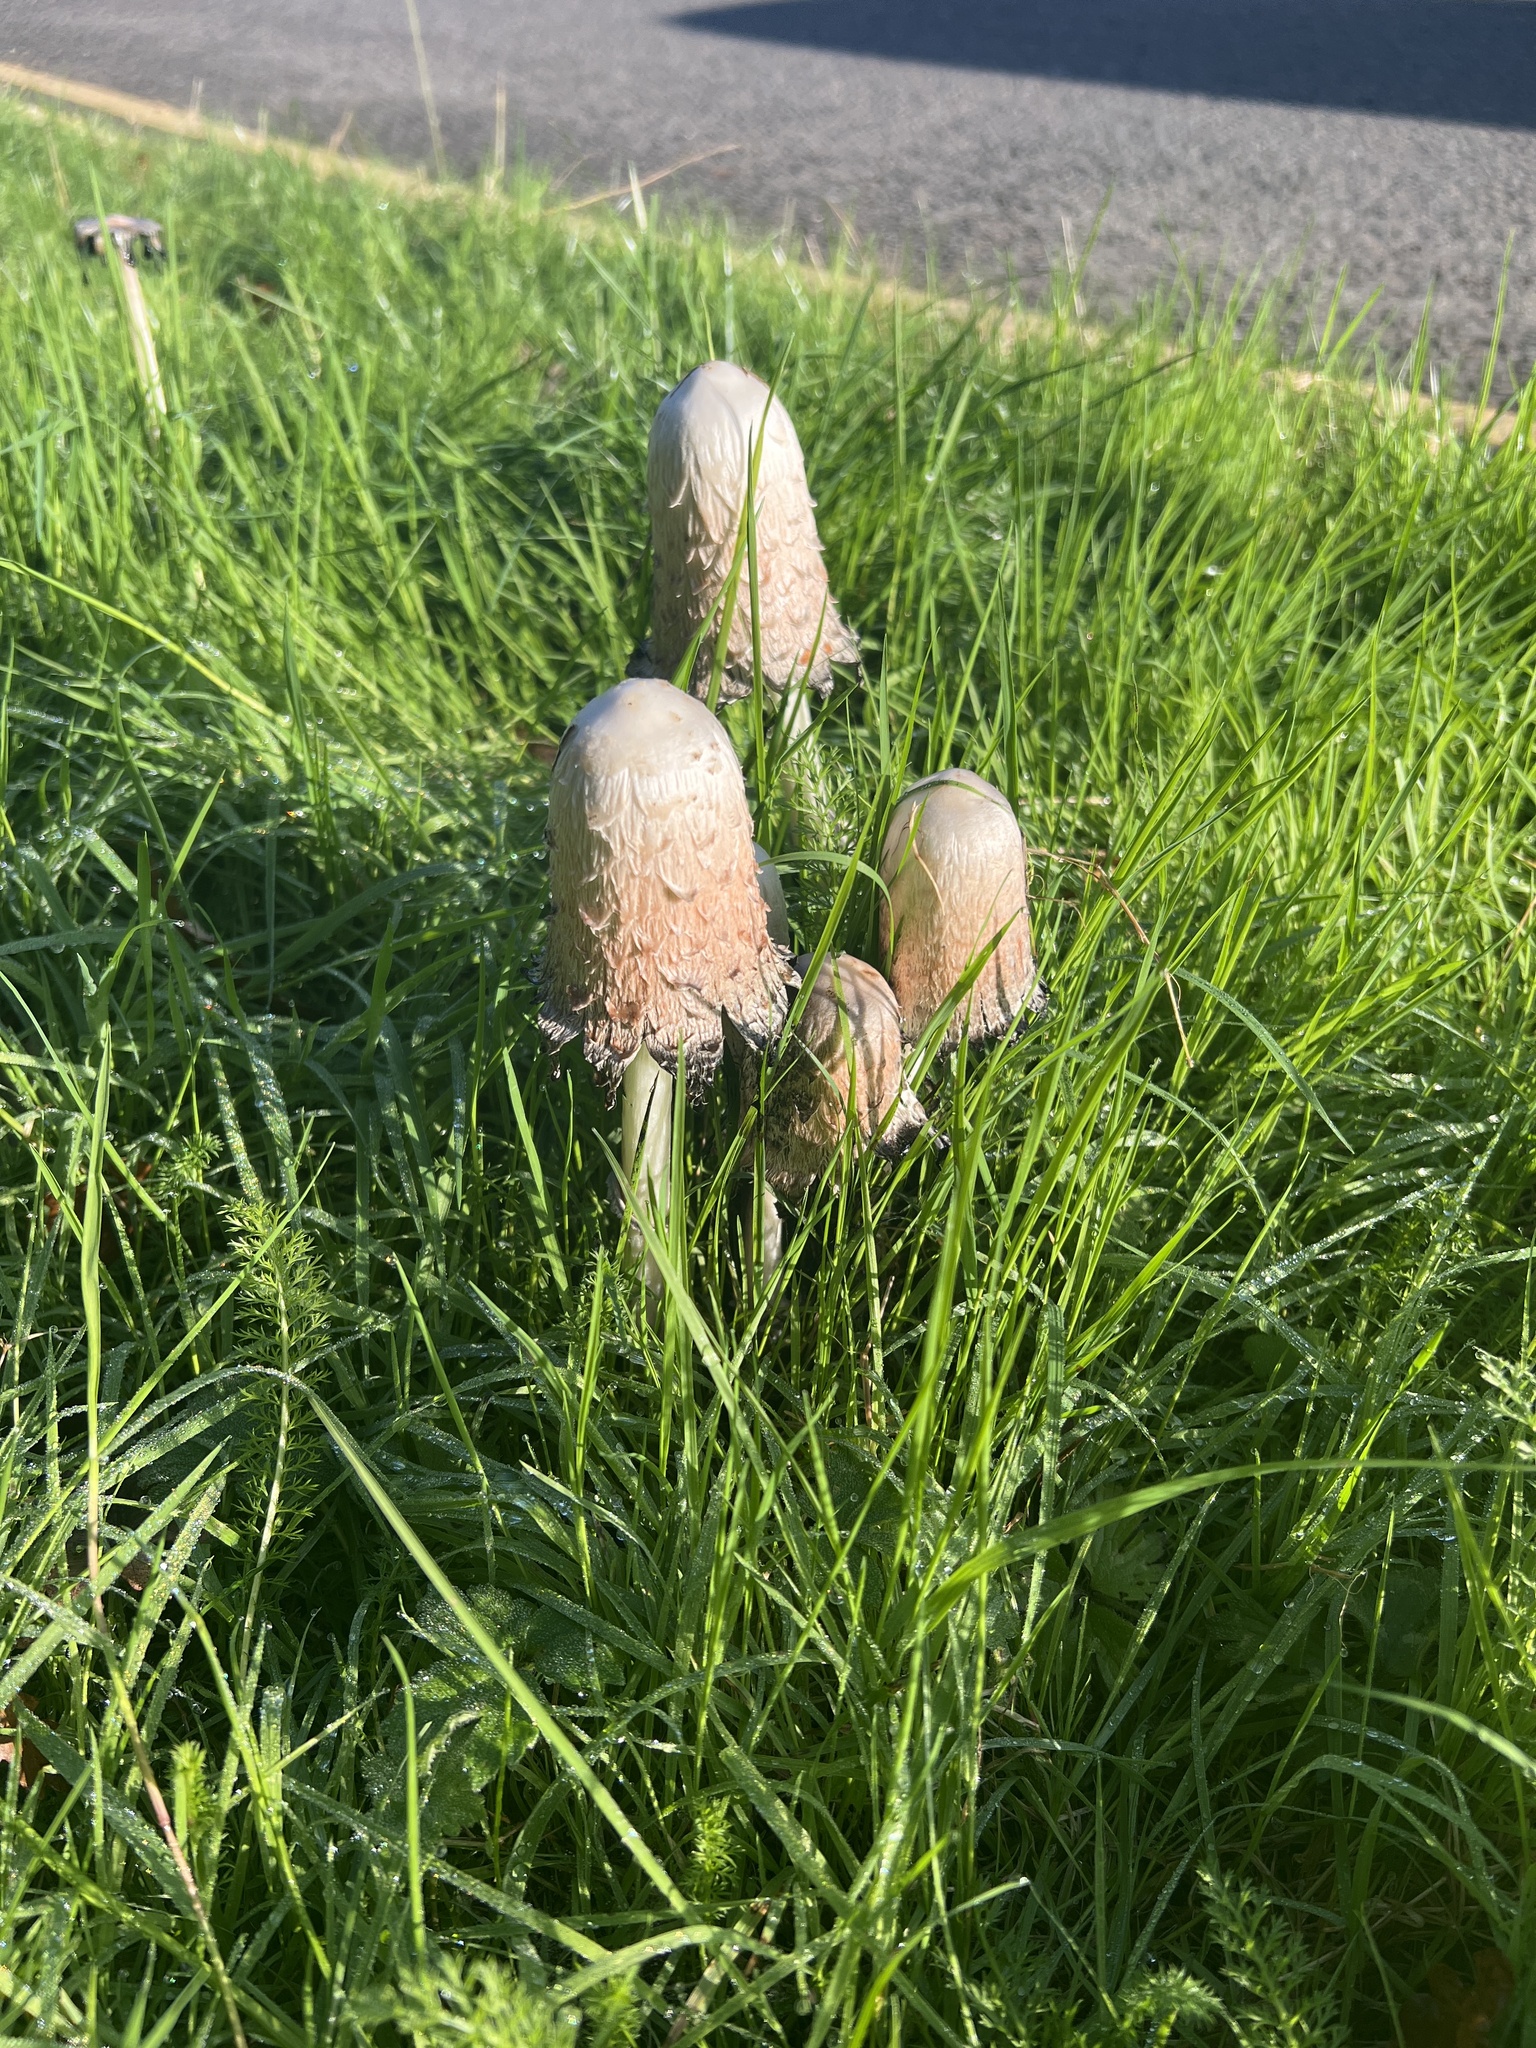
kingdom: Fungi
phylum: Basidiomycota
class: Agaricomycetes
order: Agaricales
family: Agaricaceae
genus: Coprinus
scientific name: Coprinus comatus
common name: Lawyer's wig
